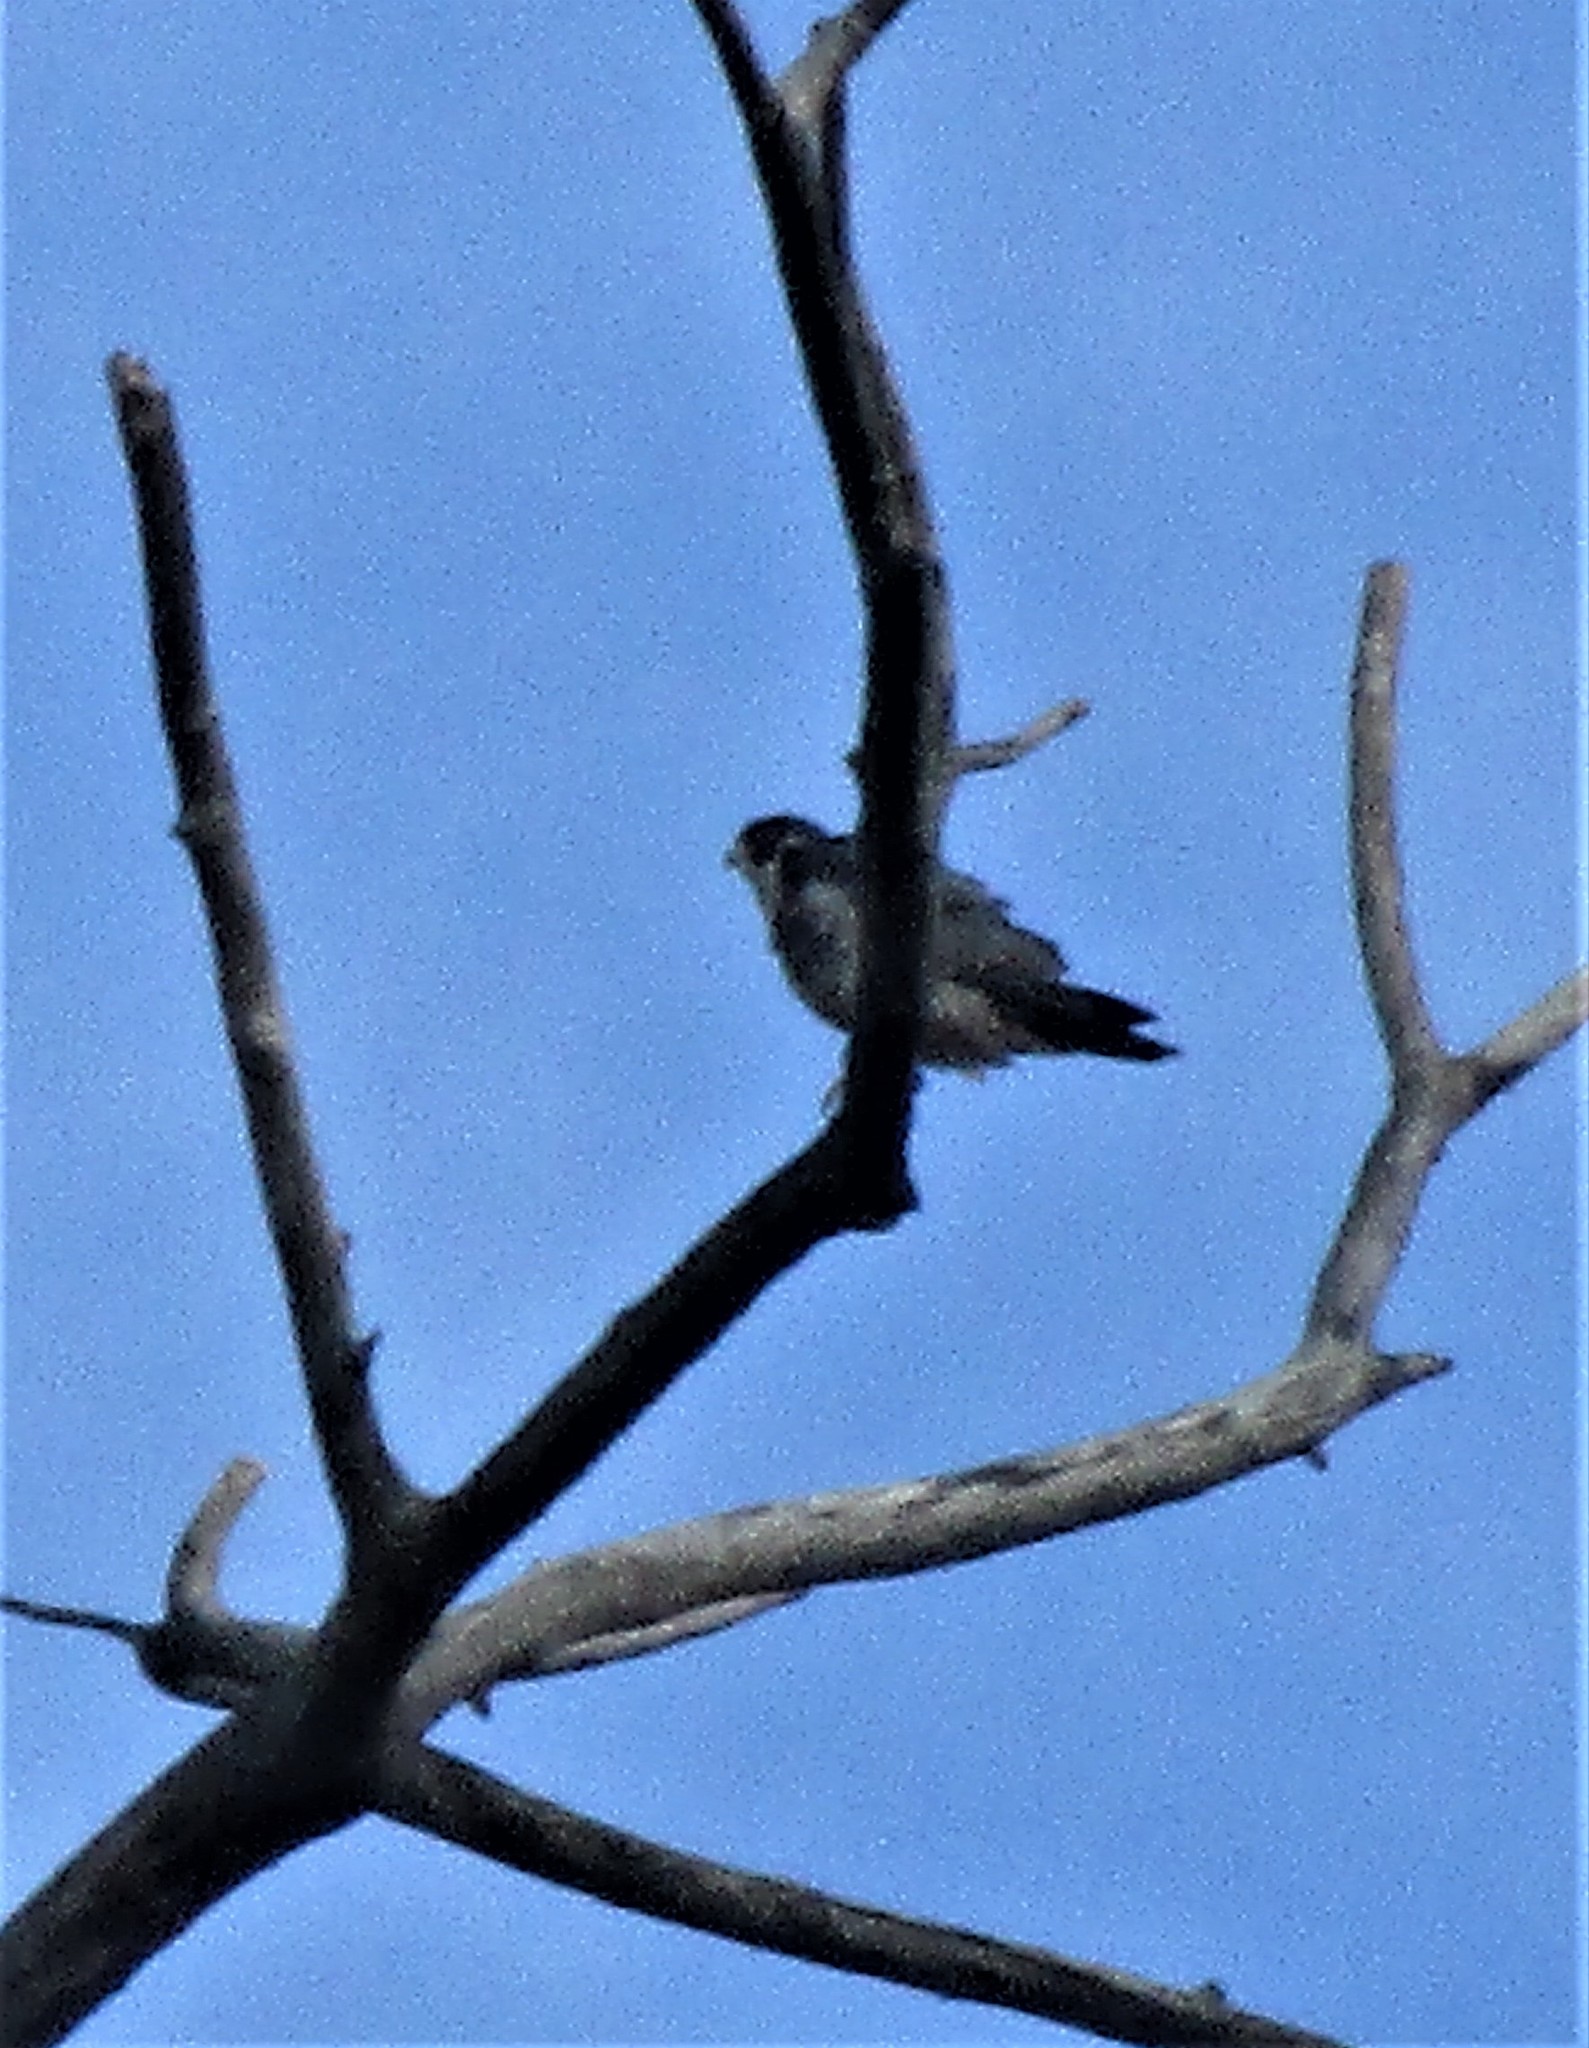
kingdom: Animalia
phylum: Chordata
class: Aves
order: Falconiformes
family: Falconidae
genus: Falco
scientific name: Falco peregrinus
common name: Peregrine falcon
